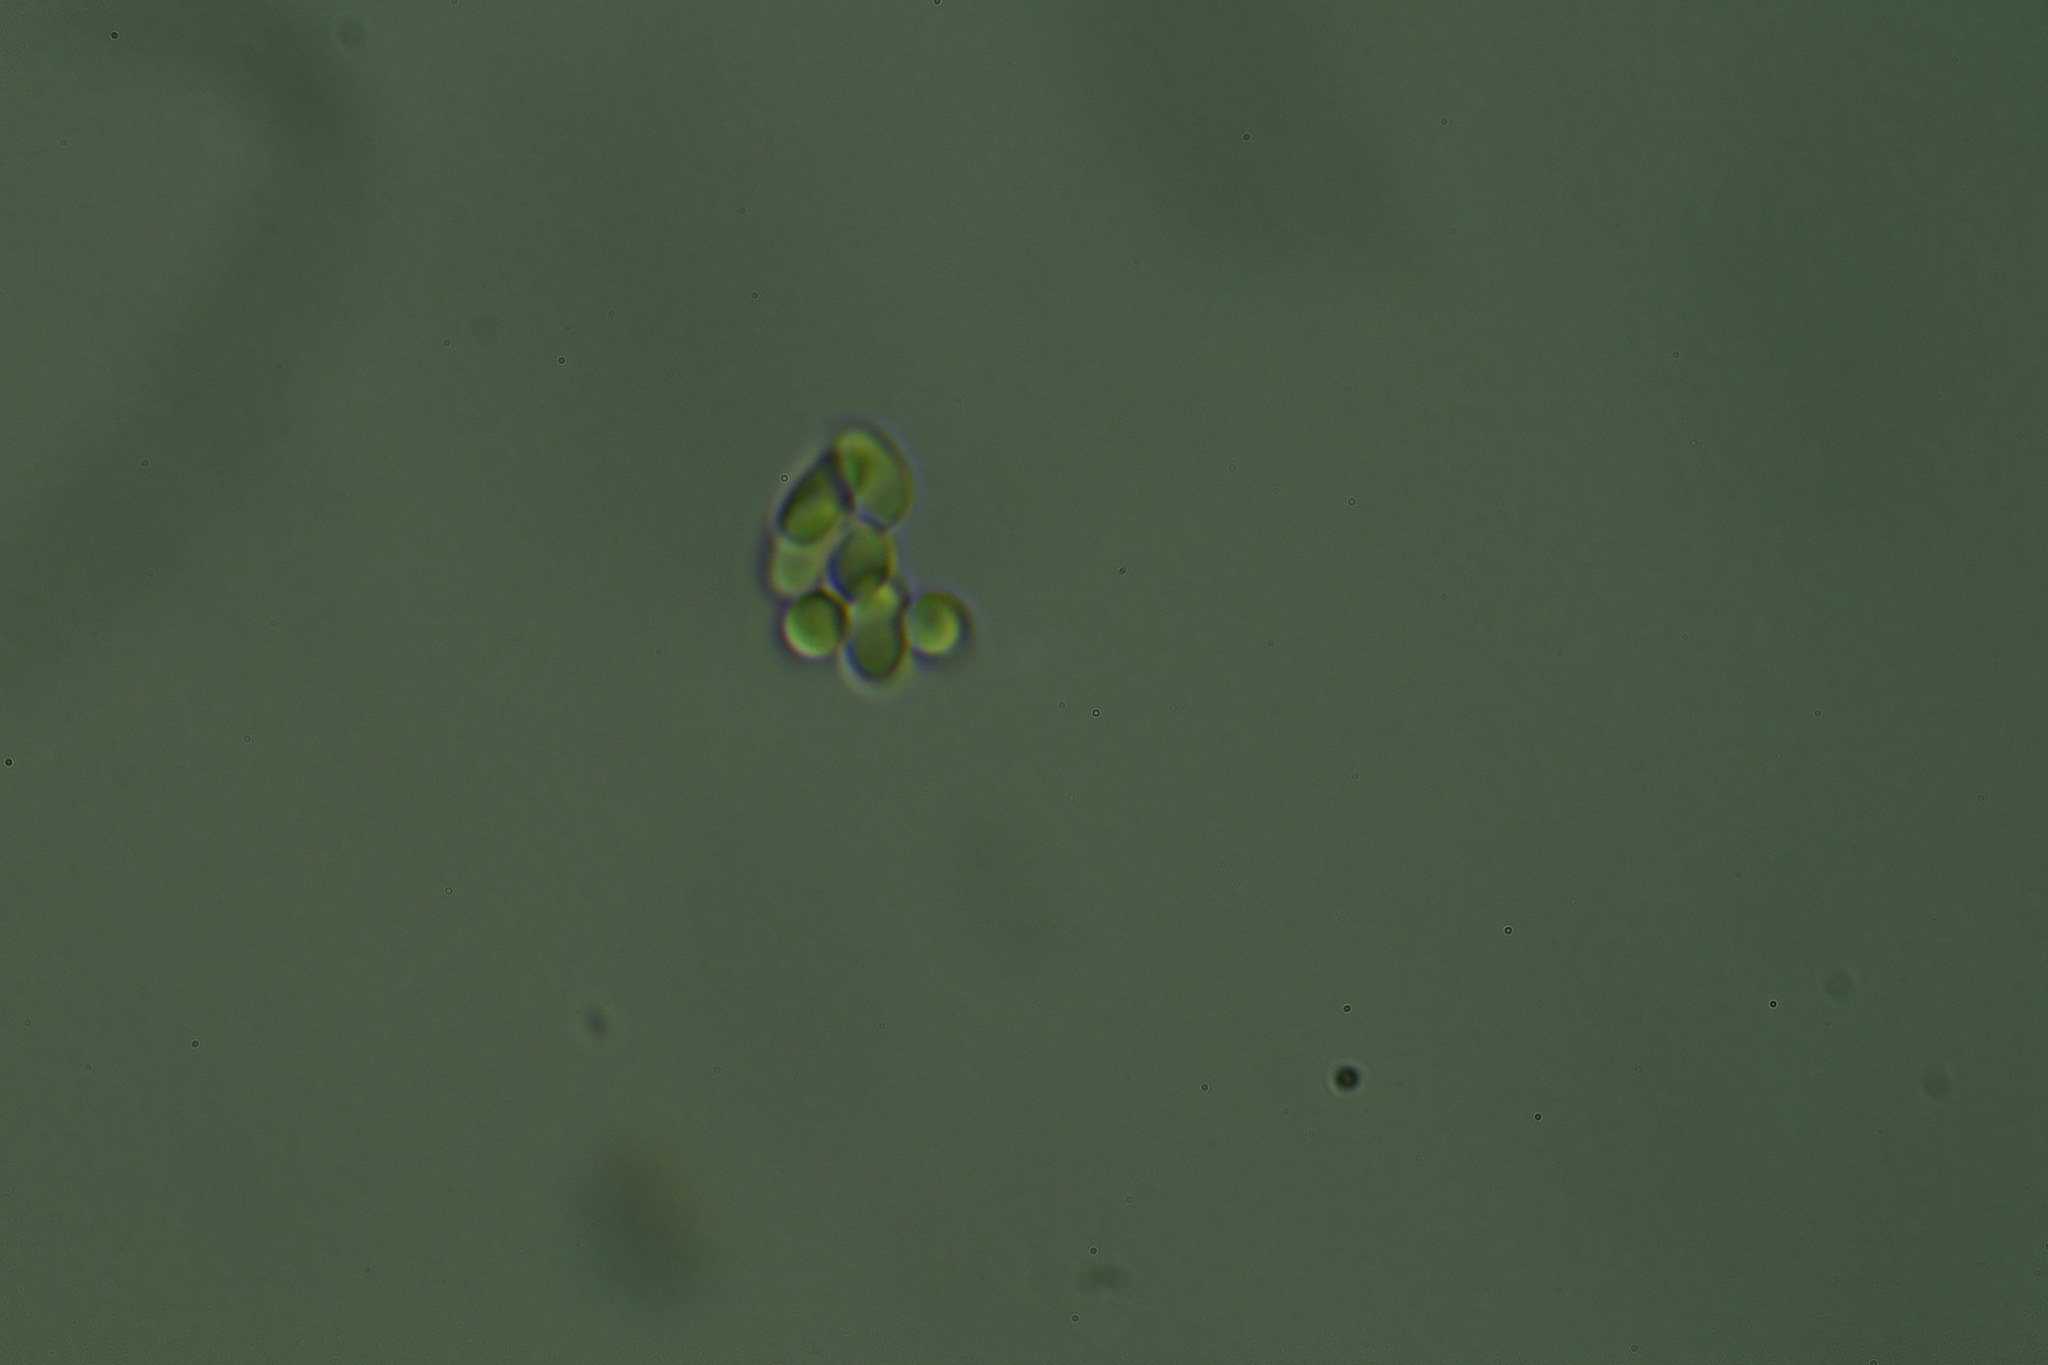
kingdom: Fungi
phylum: Basidiomycota
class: Agaricomycetes
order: Agaricales
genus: Hertzogia
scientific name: Hertzogia martiorum
